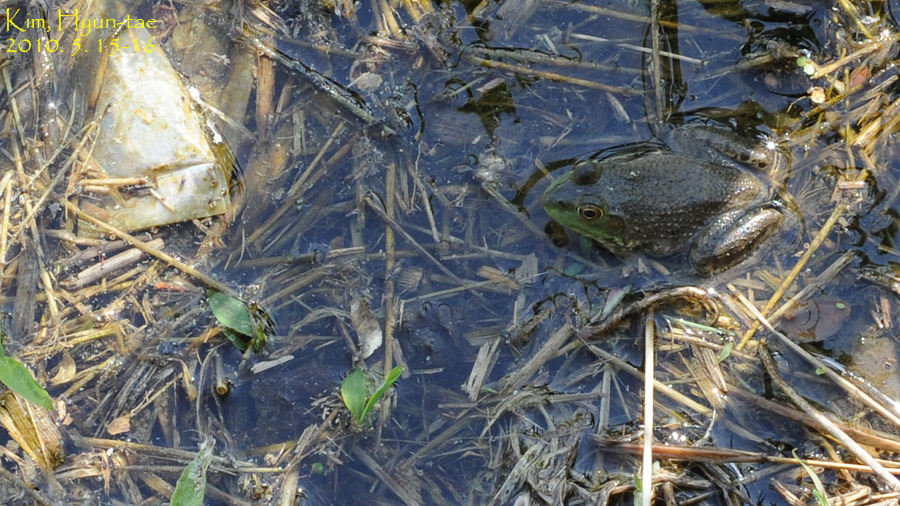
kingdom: Animalia
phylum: Chordata
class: Amphibia
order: Anura
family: Ranidae
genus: Lithobates
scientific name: Lithobates catesbeianus
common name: American bullfrog
